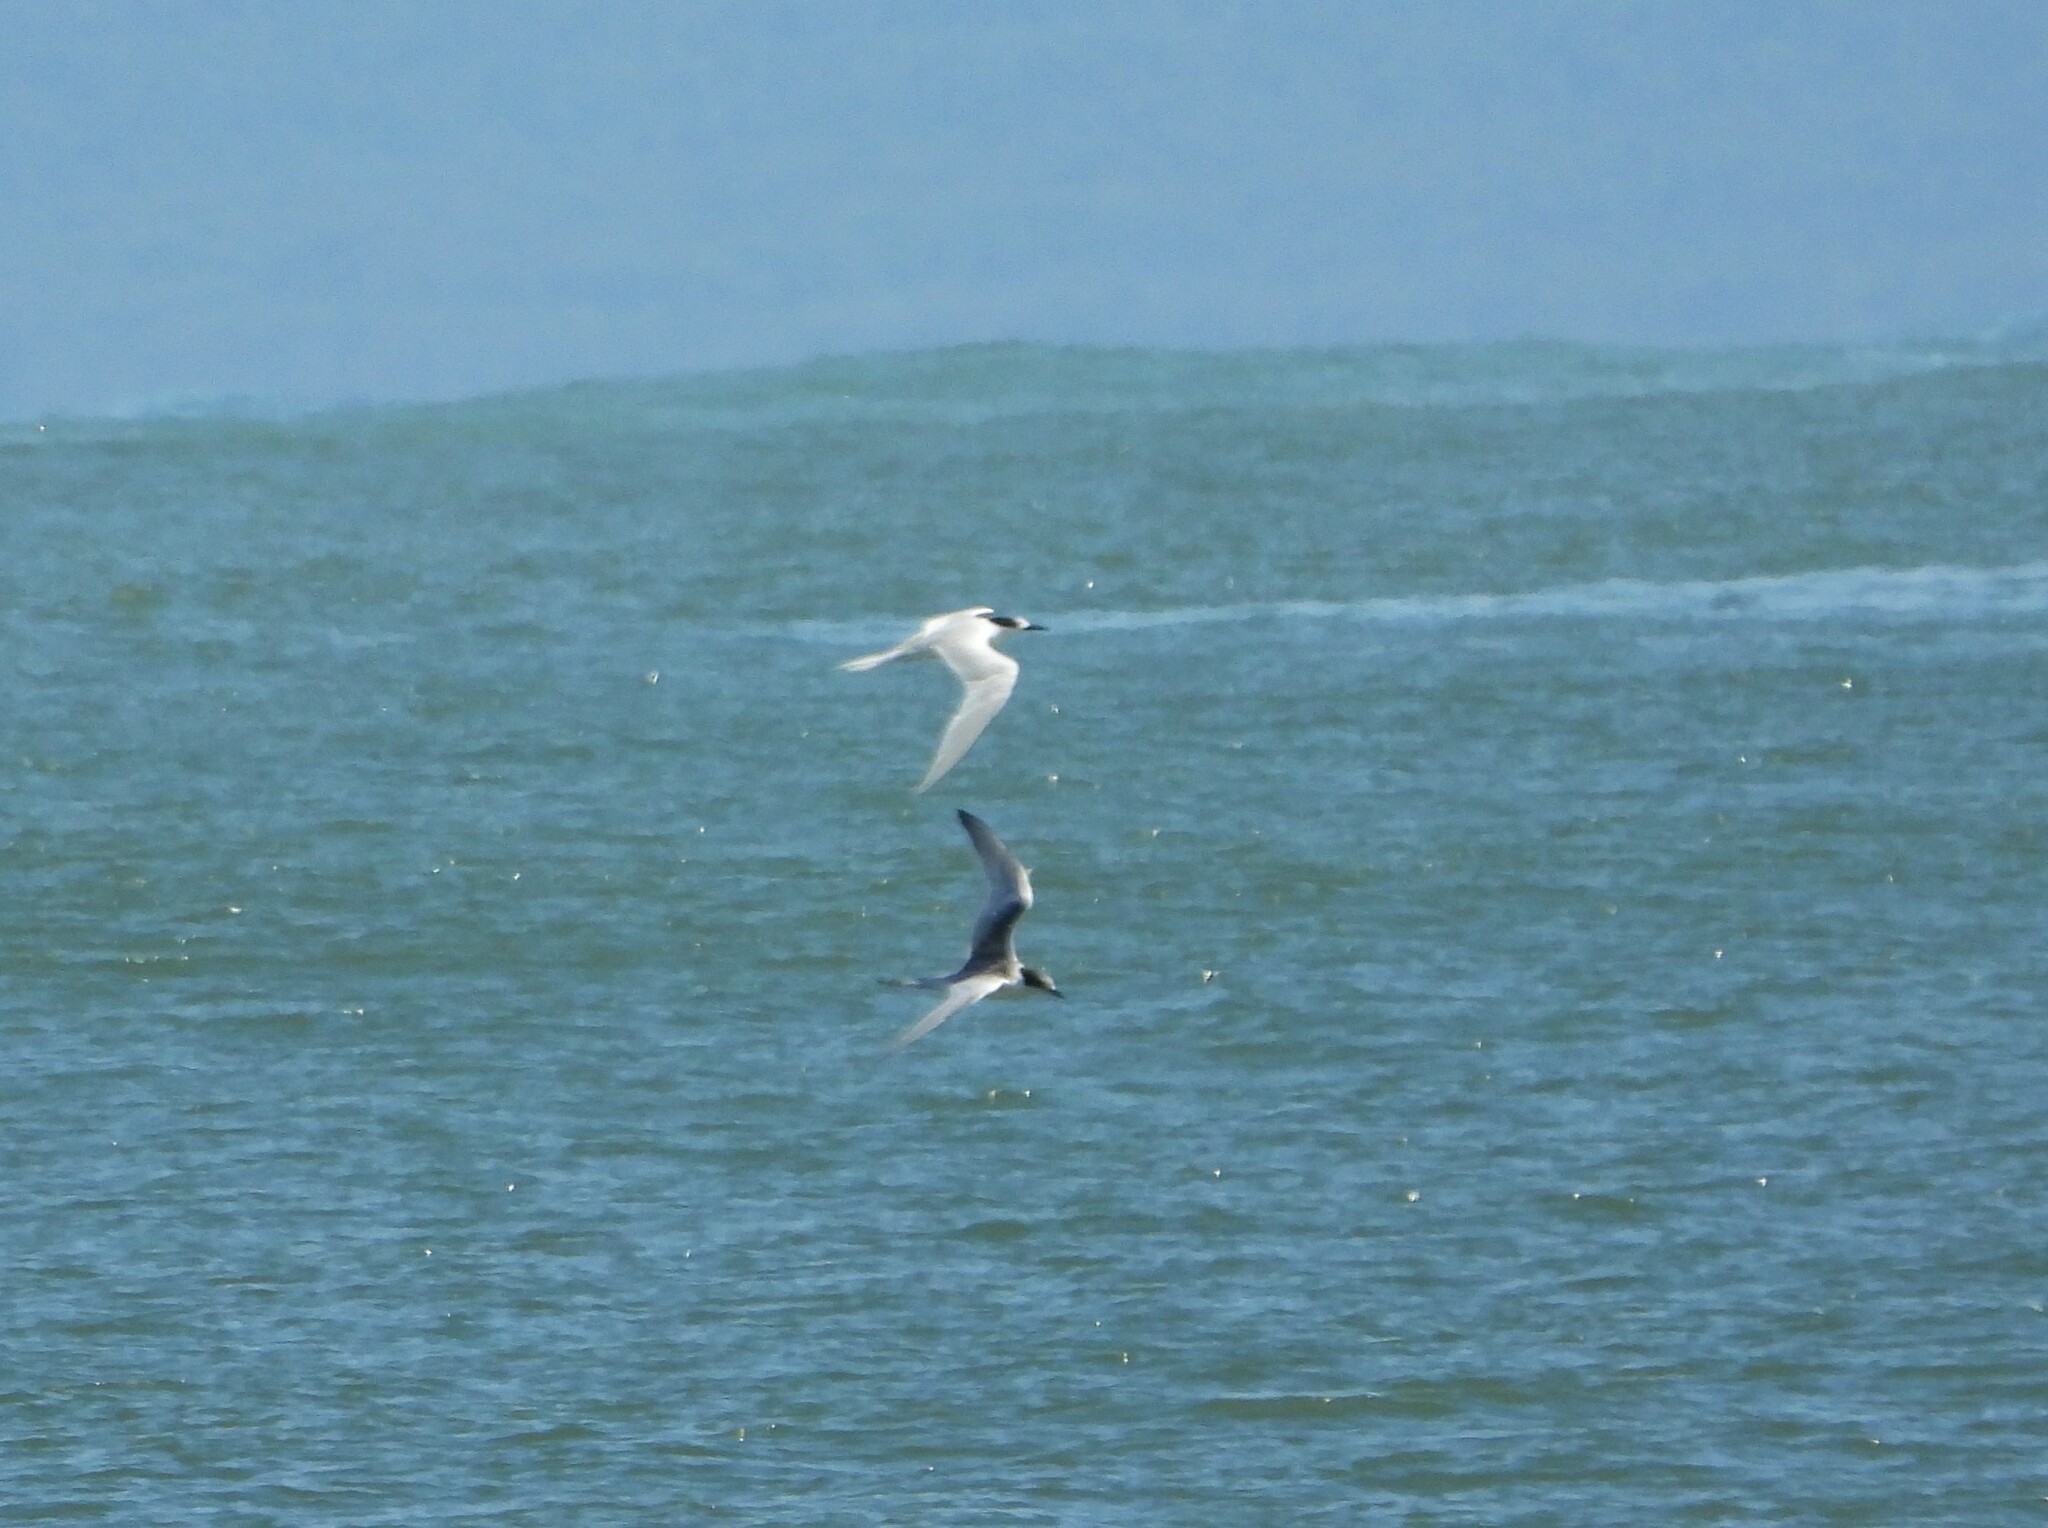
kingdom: Animalia
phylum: Chordata
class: Aves
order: Charadriiformes
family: Laridae
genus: Sterna
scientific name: Sterna striata
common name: White-fronted tern
